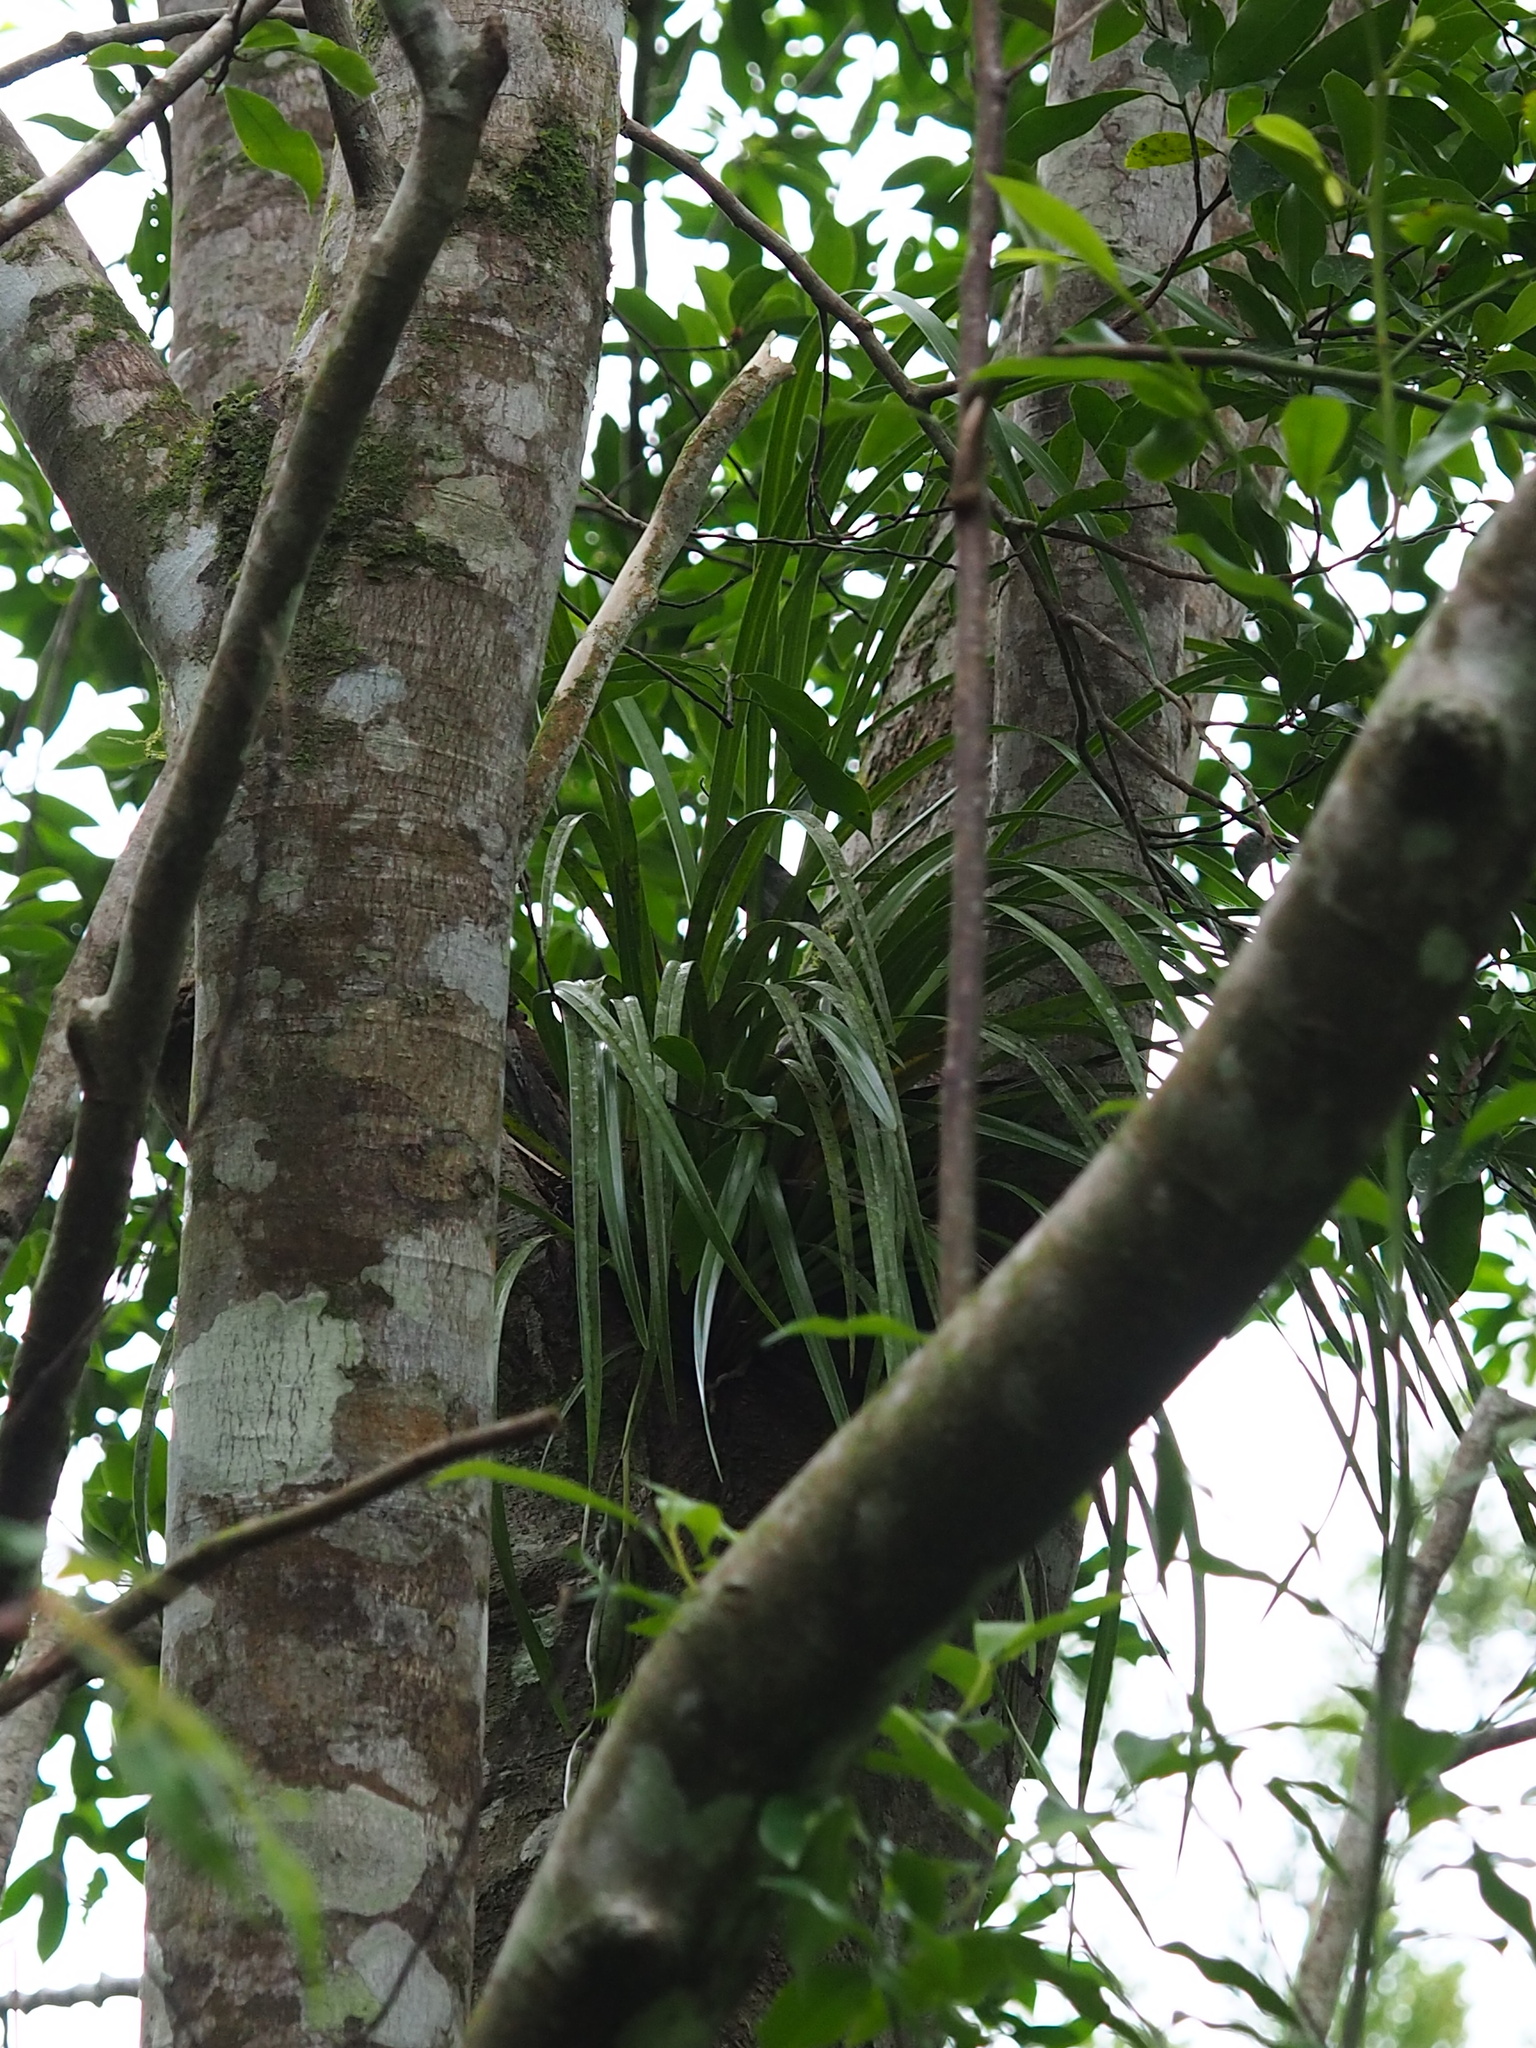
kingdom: Plantae
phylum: Tracheophyta
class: Liliopsida
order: Asparagales
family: Orchidaceae
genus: Cymbidium
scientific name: Cymbidium dayanum
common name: Orchid
